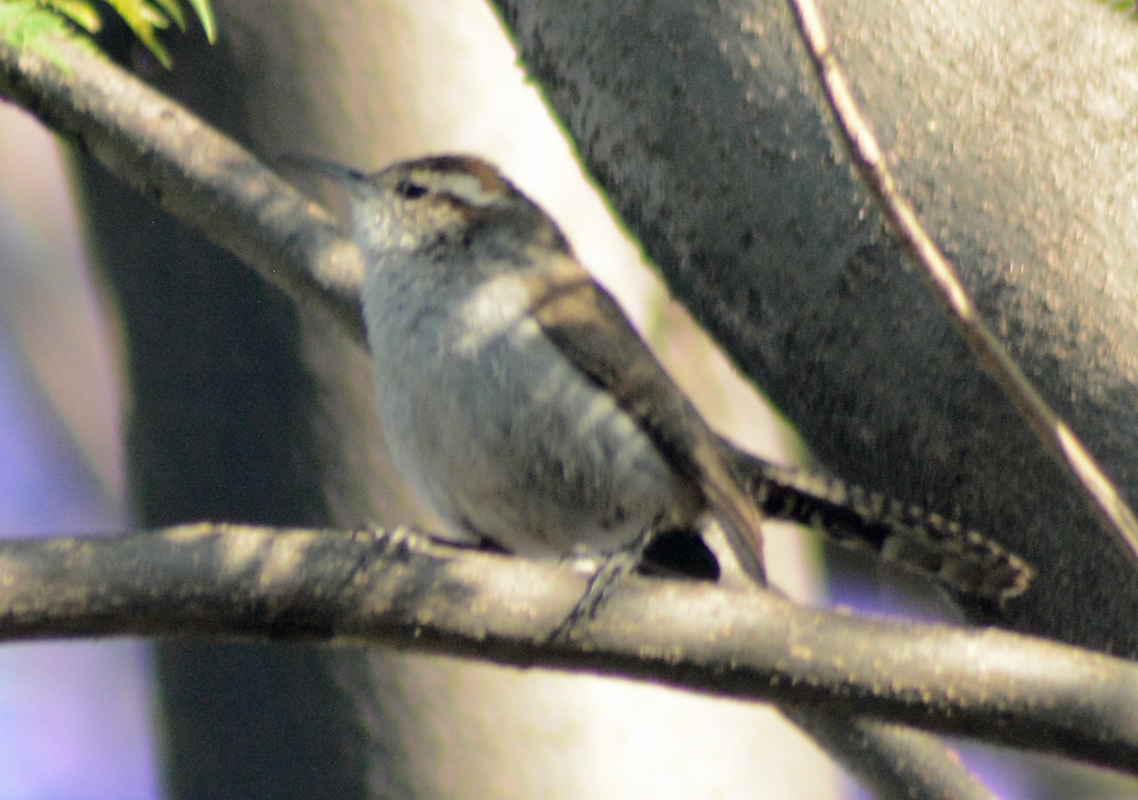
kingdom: Animalia
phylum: Chordata
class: Aves
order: Passeriformes
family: Troglodytidae
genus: Thryomanes
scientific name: Thryomanes bewickii
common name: Bewick's wren
